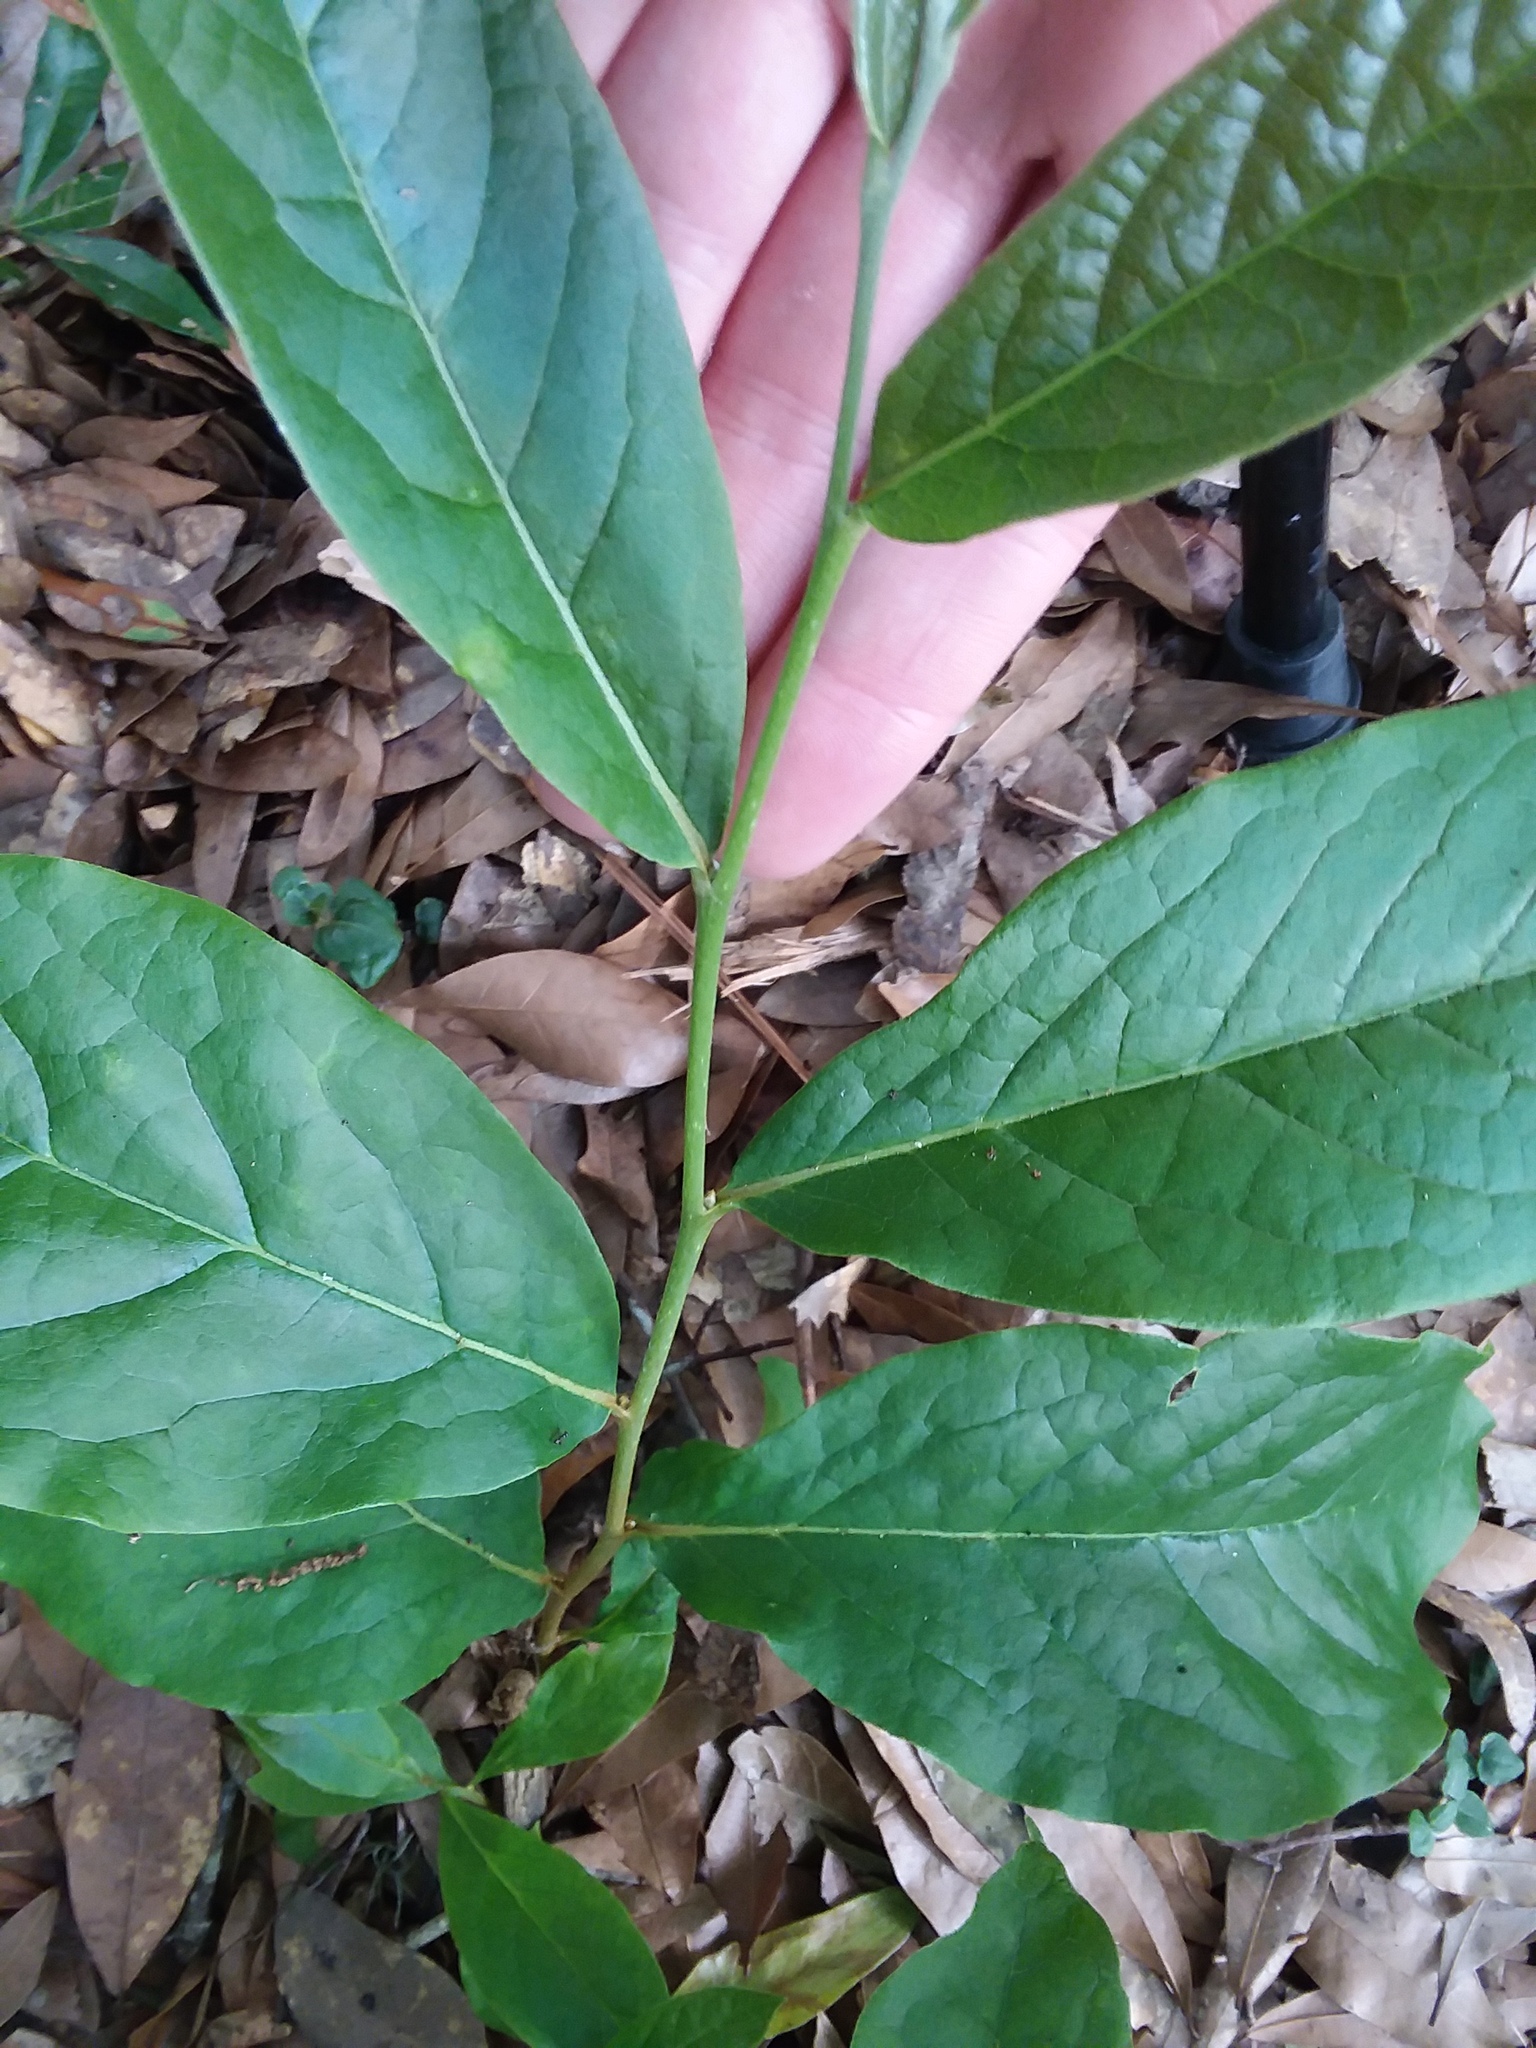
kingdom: Plantae
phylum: Tracheophyta
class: Magnoliopsida
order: Magnoliales
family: Annonaceae
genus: Asimina
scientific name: Asimina parviflora
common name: Dwarf pawpaw
